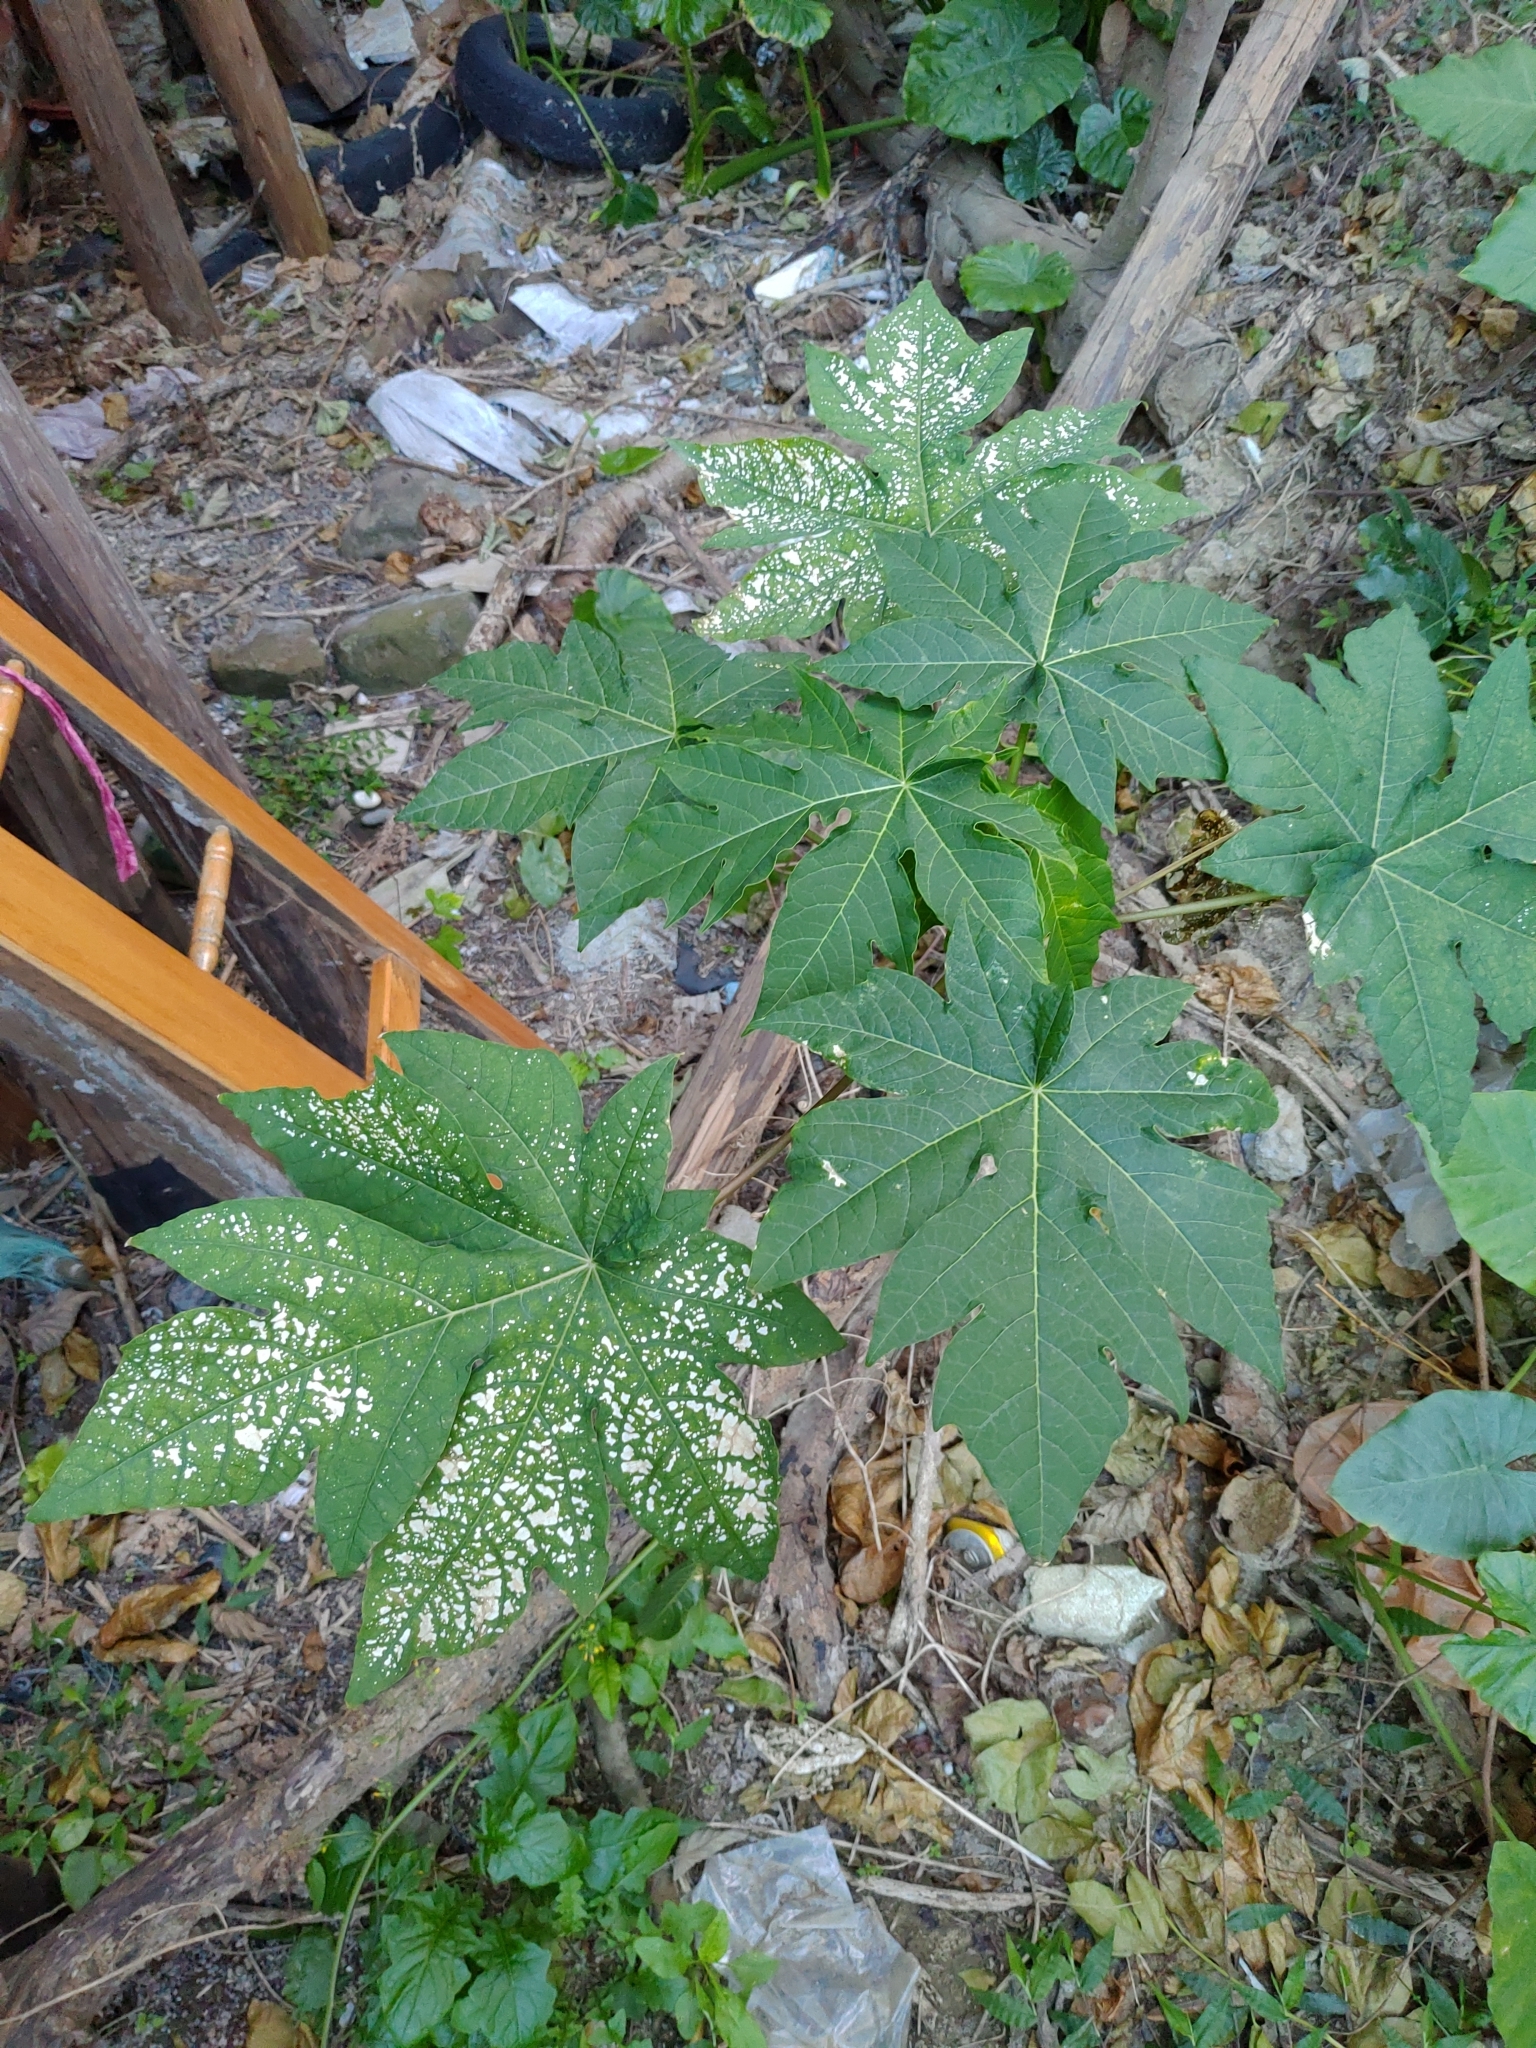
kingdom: Plantae
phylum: Tracheophyta
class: Magnoliopsida
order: Brassicales
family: Caricaceae
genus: Carica
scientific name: Carica papaya
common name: Papaya
